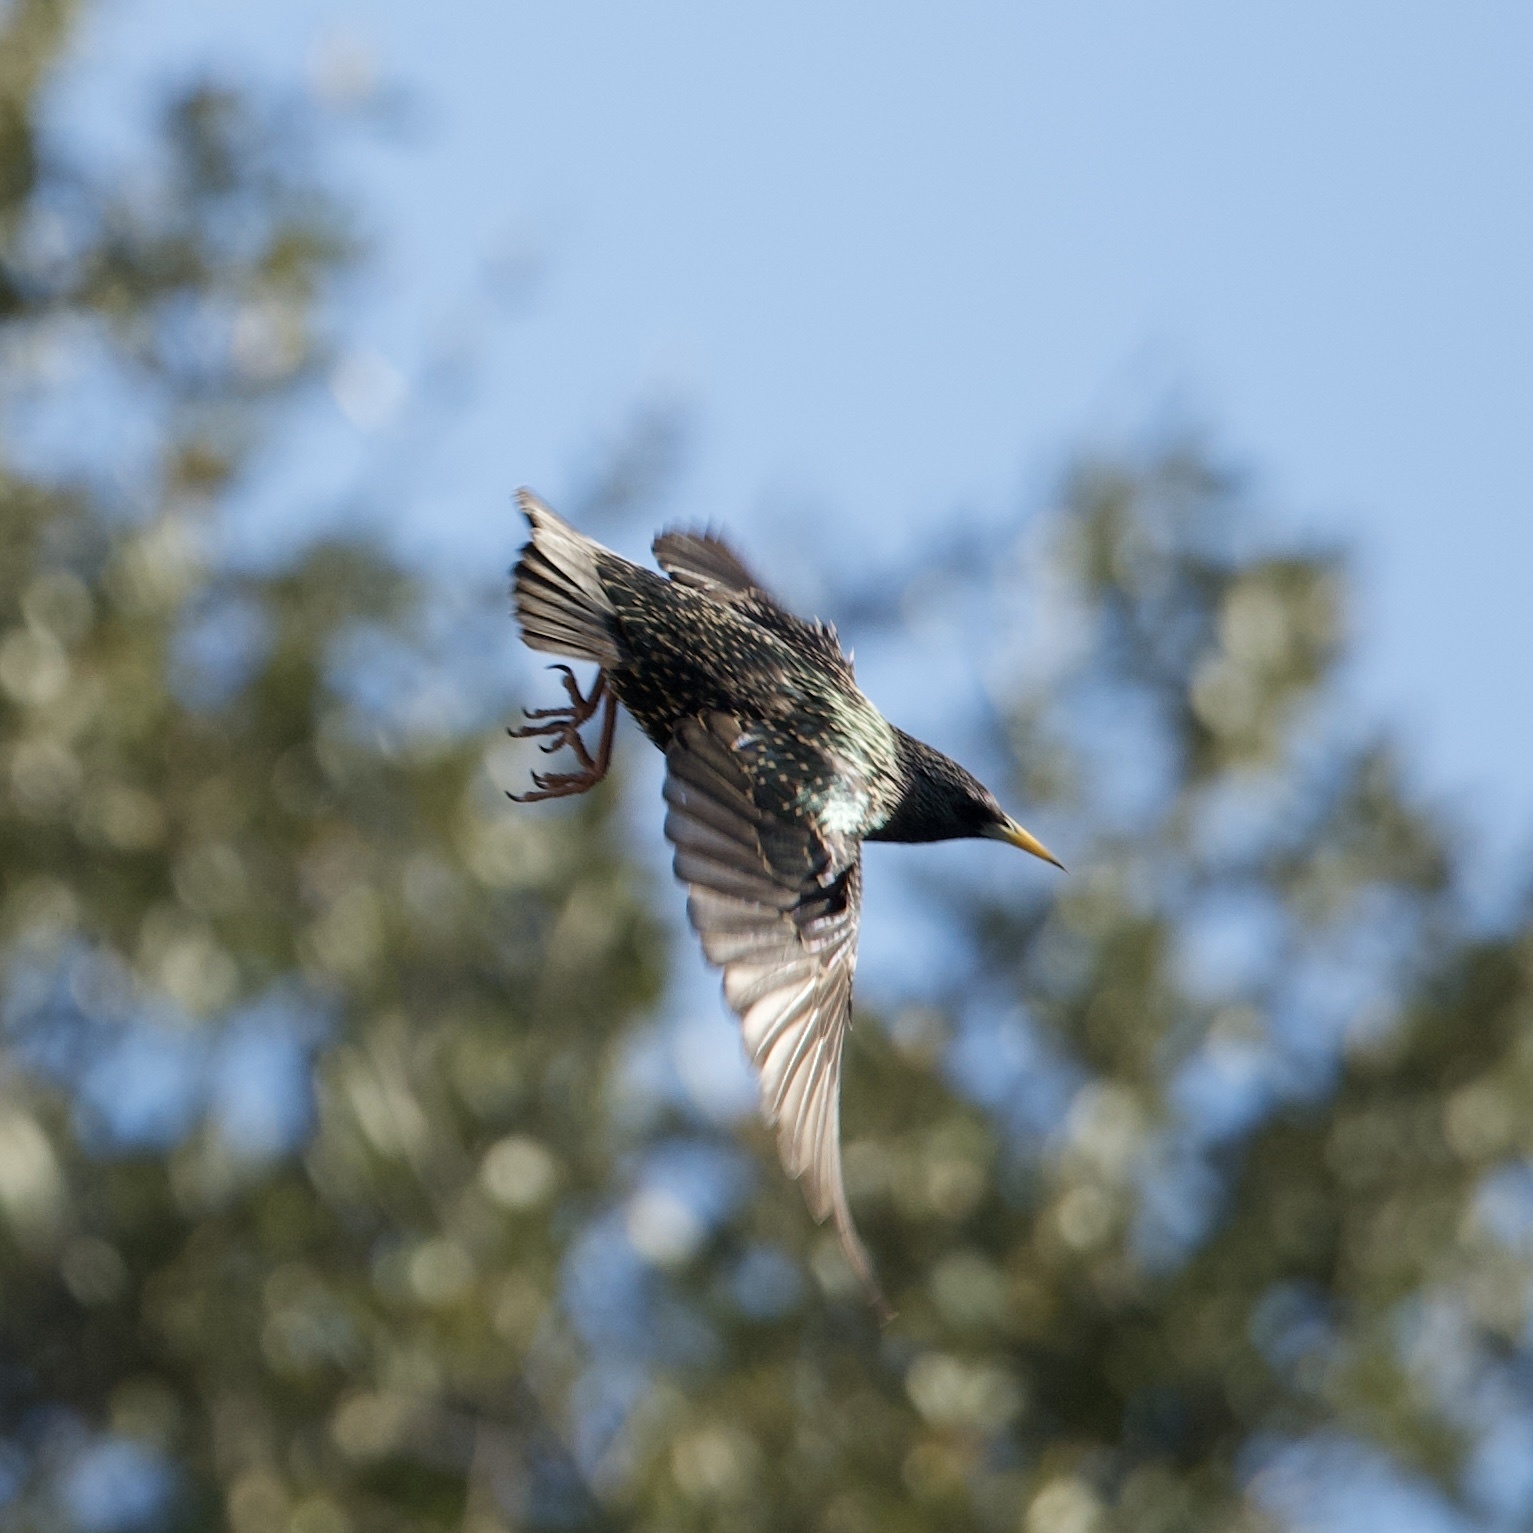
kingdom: Animalia
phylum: Chordata
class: Aves
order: Passeriformes
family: Sturnidae
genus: Sturnus
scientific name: Sturnus vulgaris
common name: Common starling
